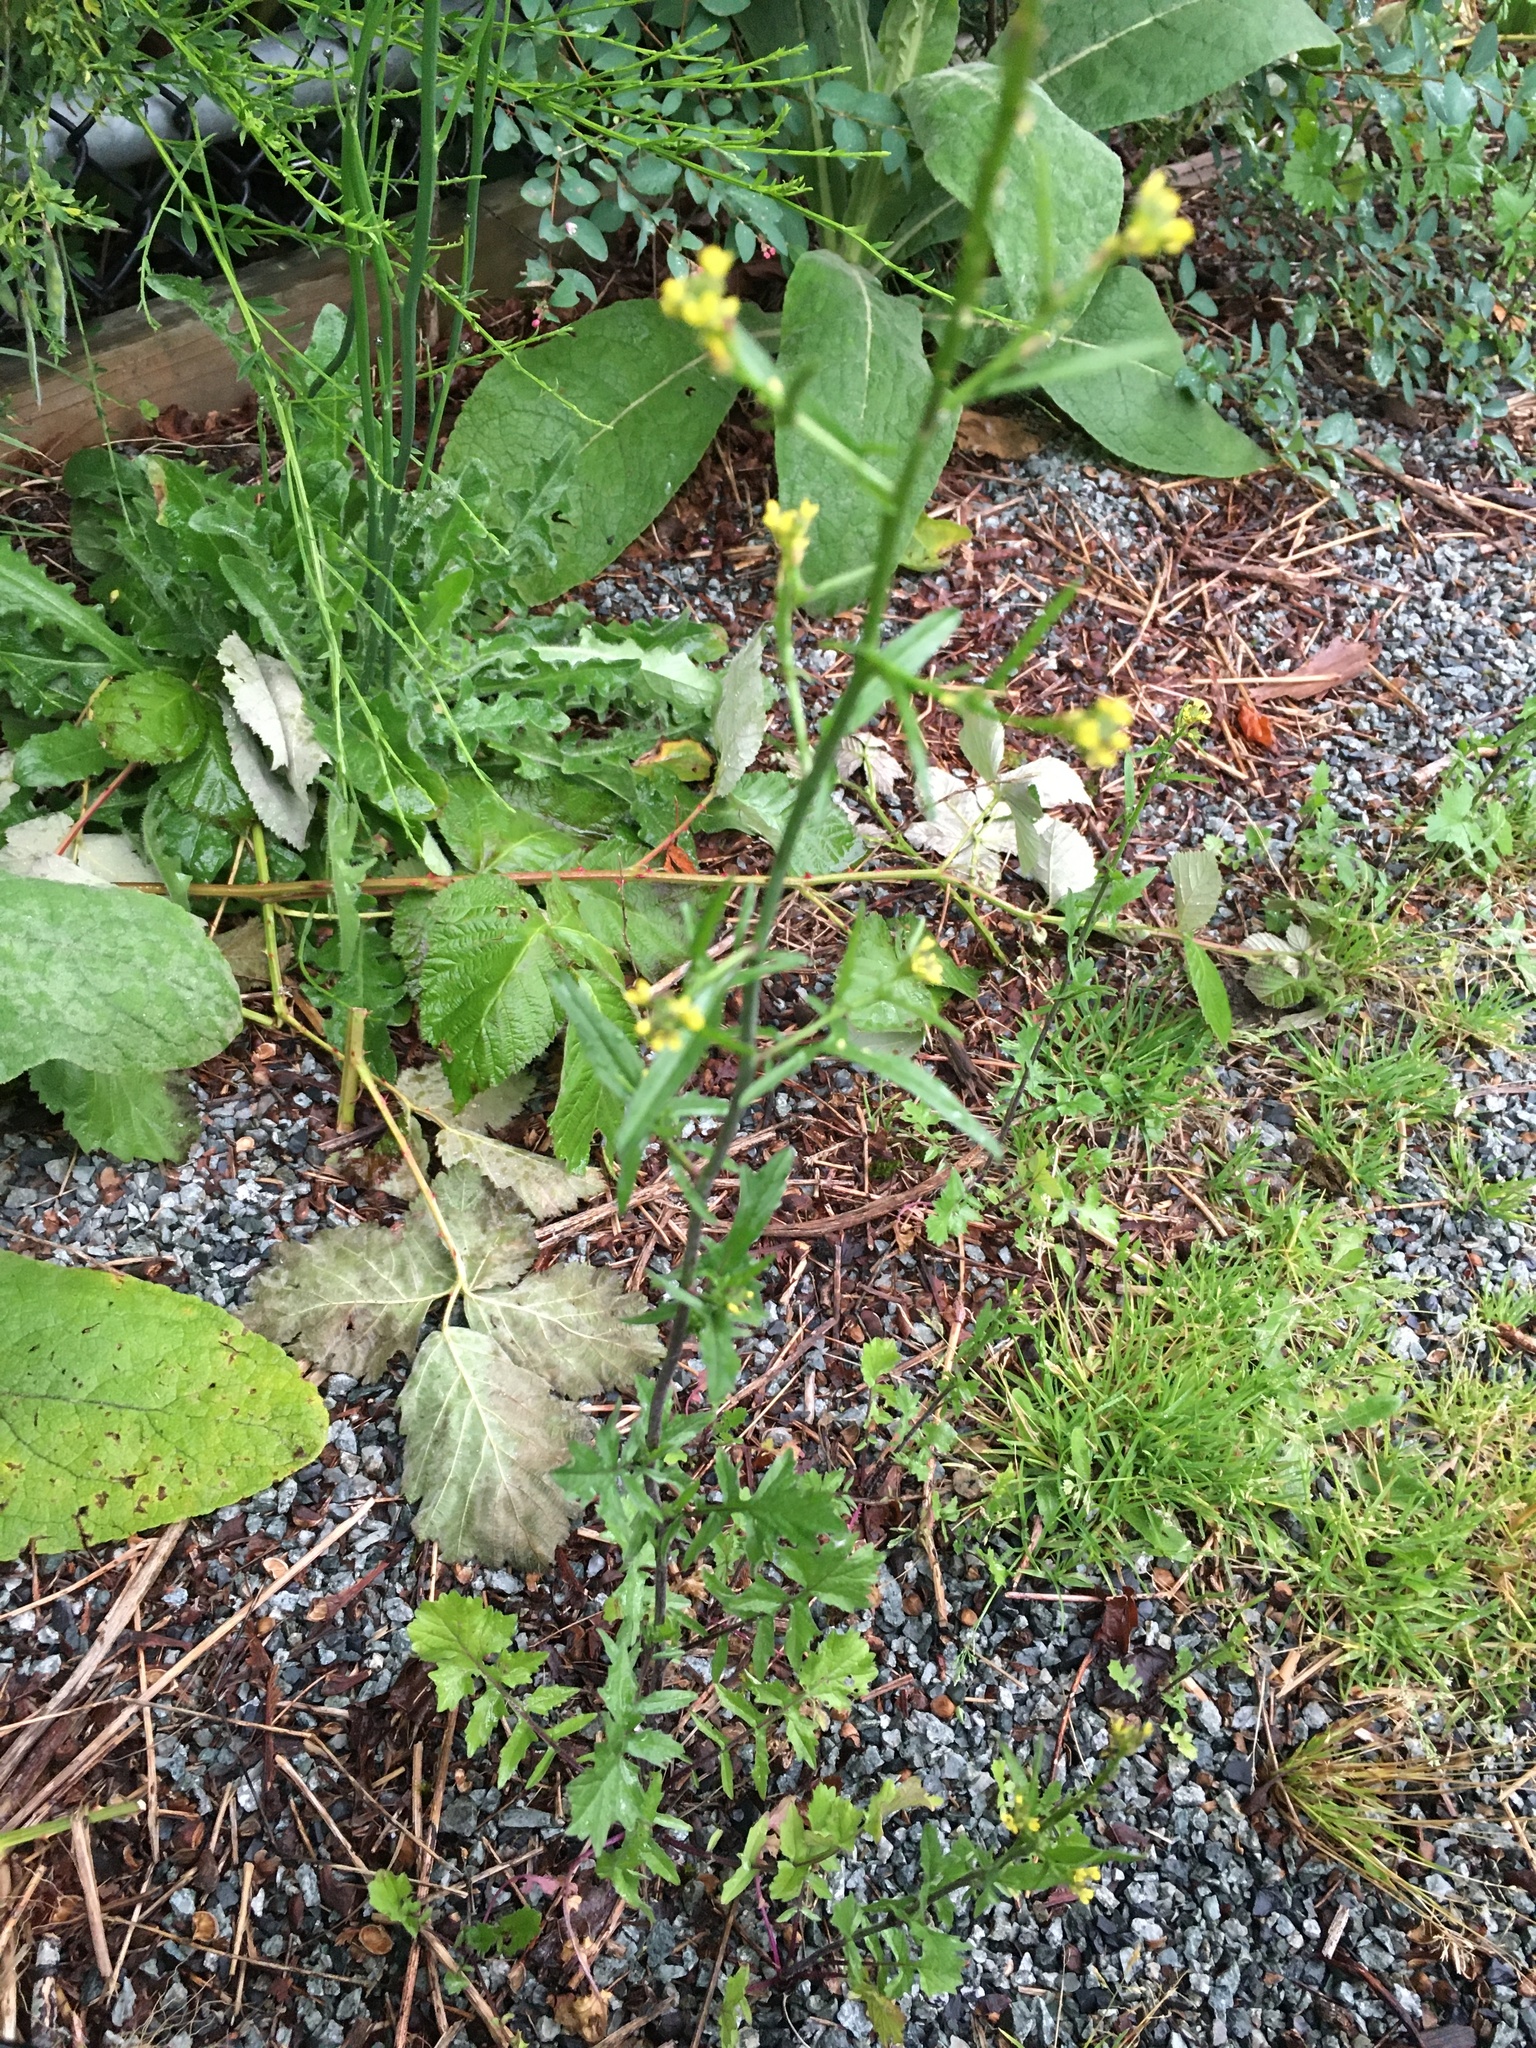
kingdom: Plantae
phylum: Tracheophyta
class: Magnoliopsida
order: Brassicales
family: Brassicaceae
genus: Sisymbrium
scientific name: Sisymbrium officinale
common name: Hedge mustard
